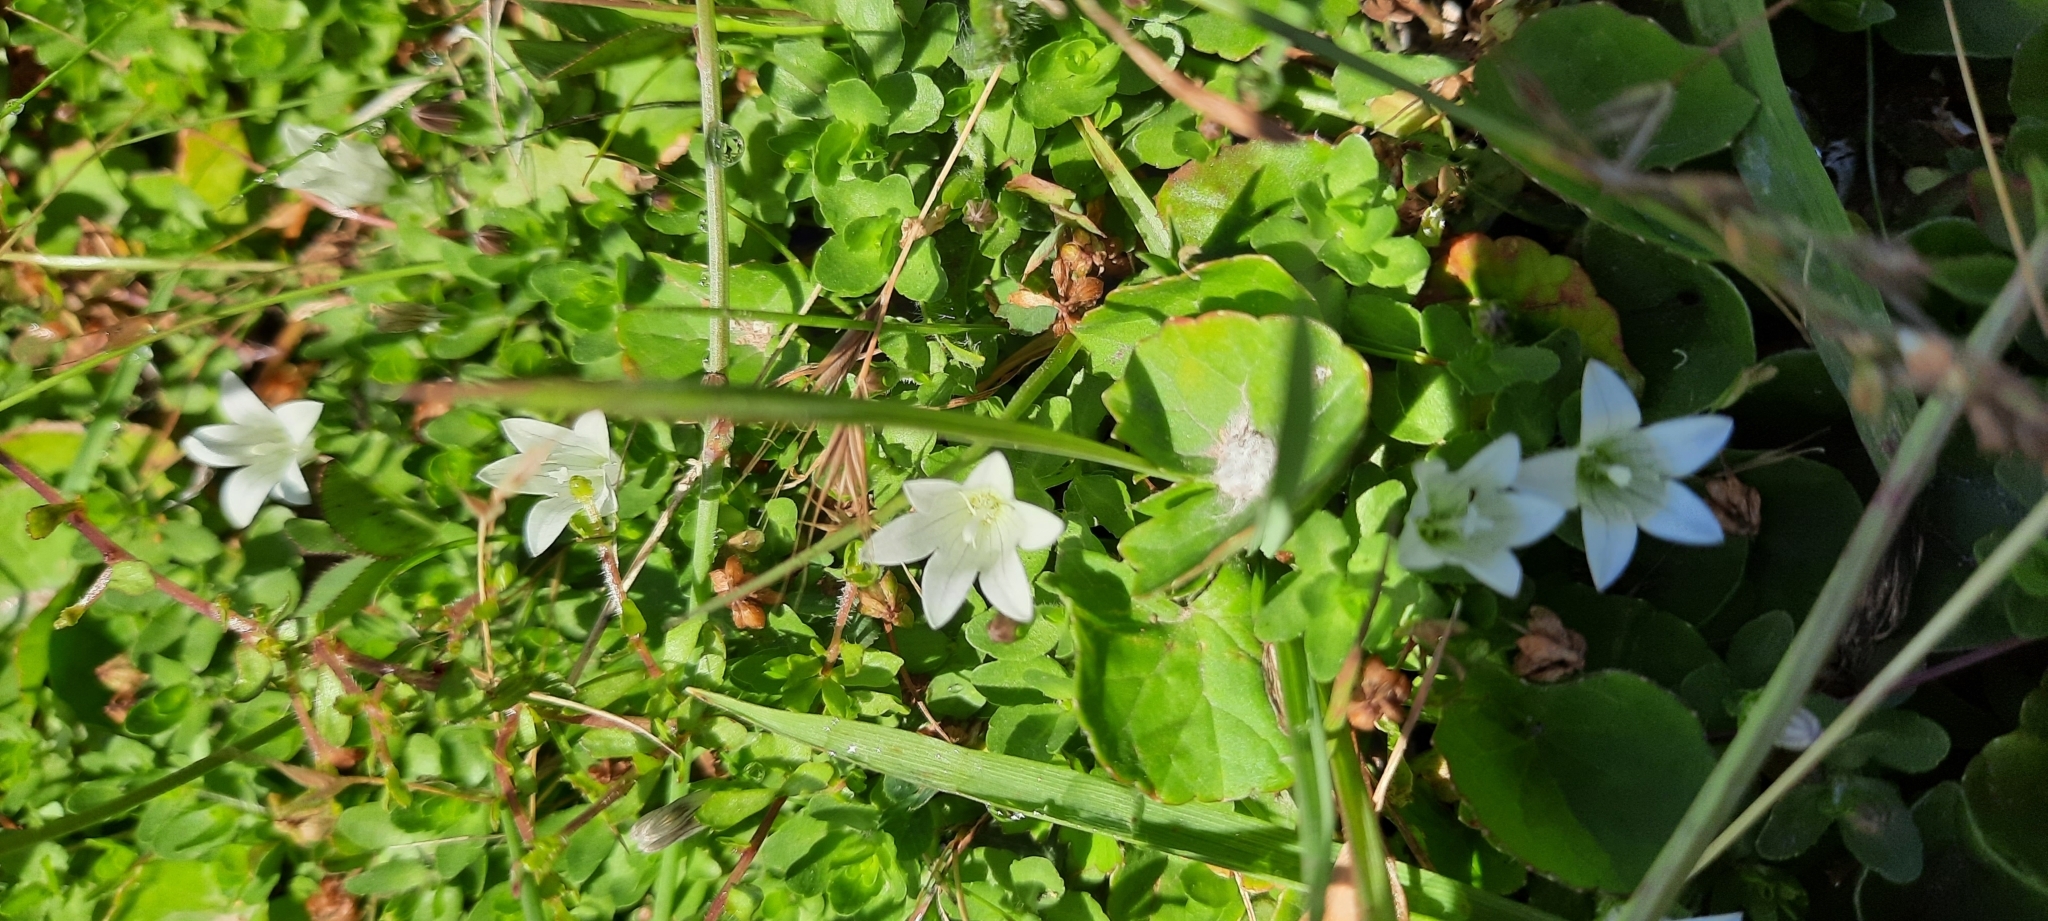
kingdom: Plantae
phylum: Tracheophyta
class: Magnoliopsida
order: Asterales
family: Campanulaceae
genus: Wahlenbergia
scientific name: Wahlenbergia procumbens
